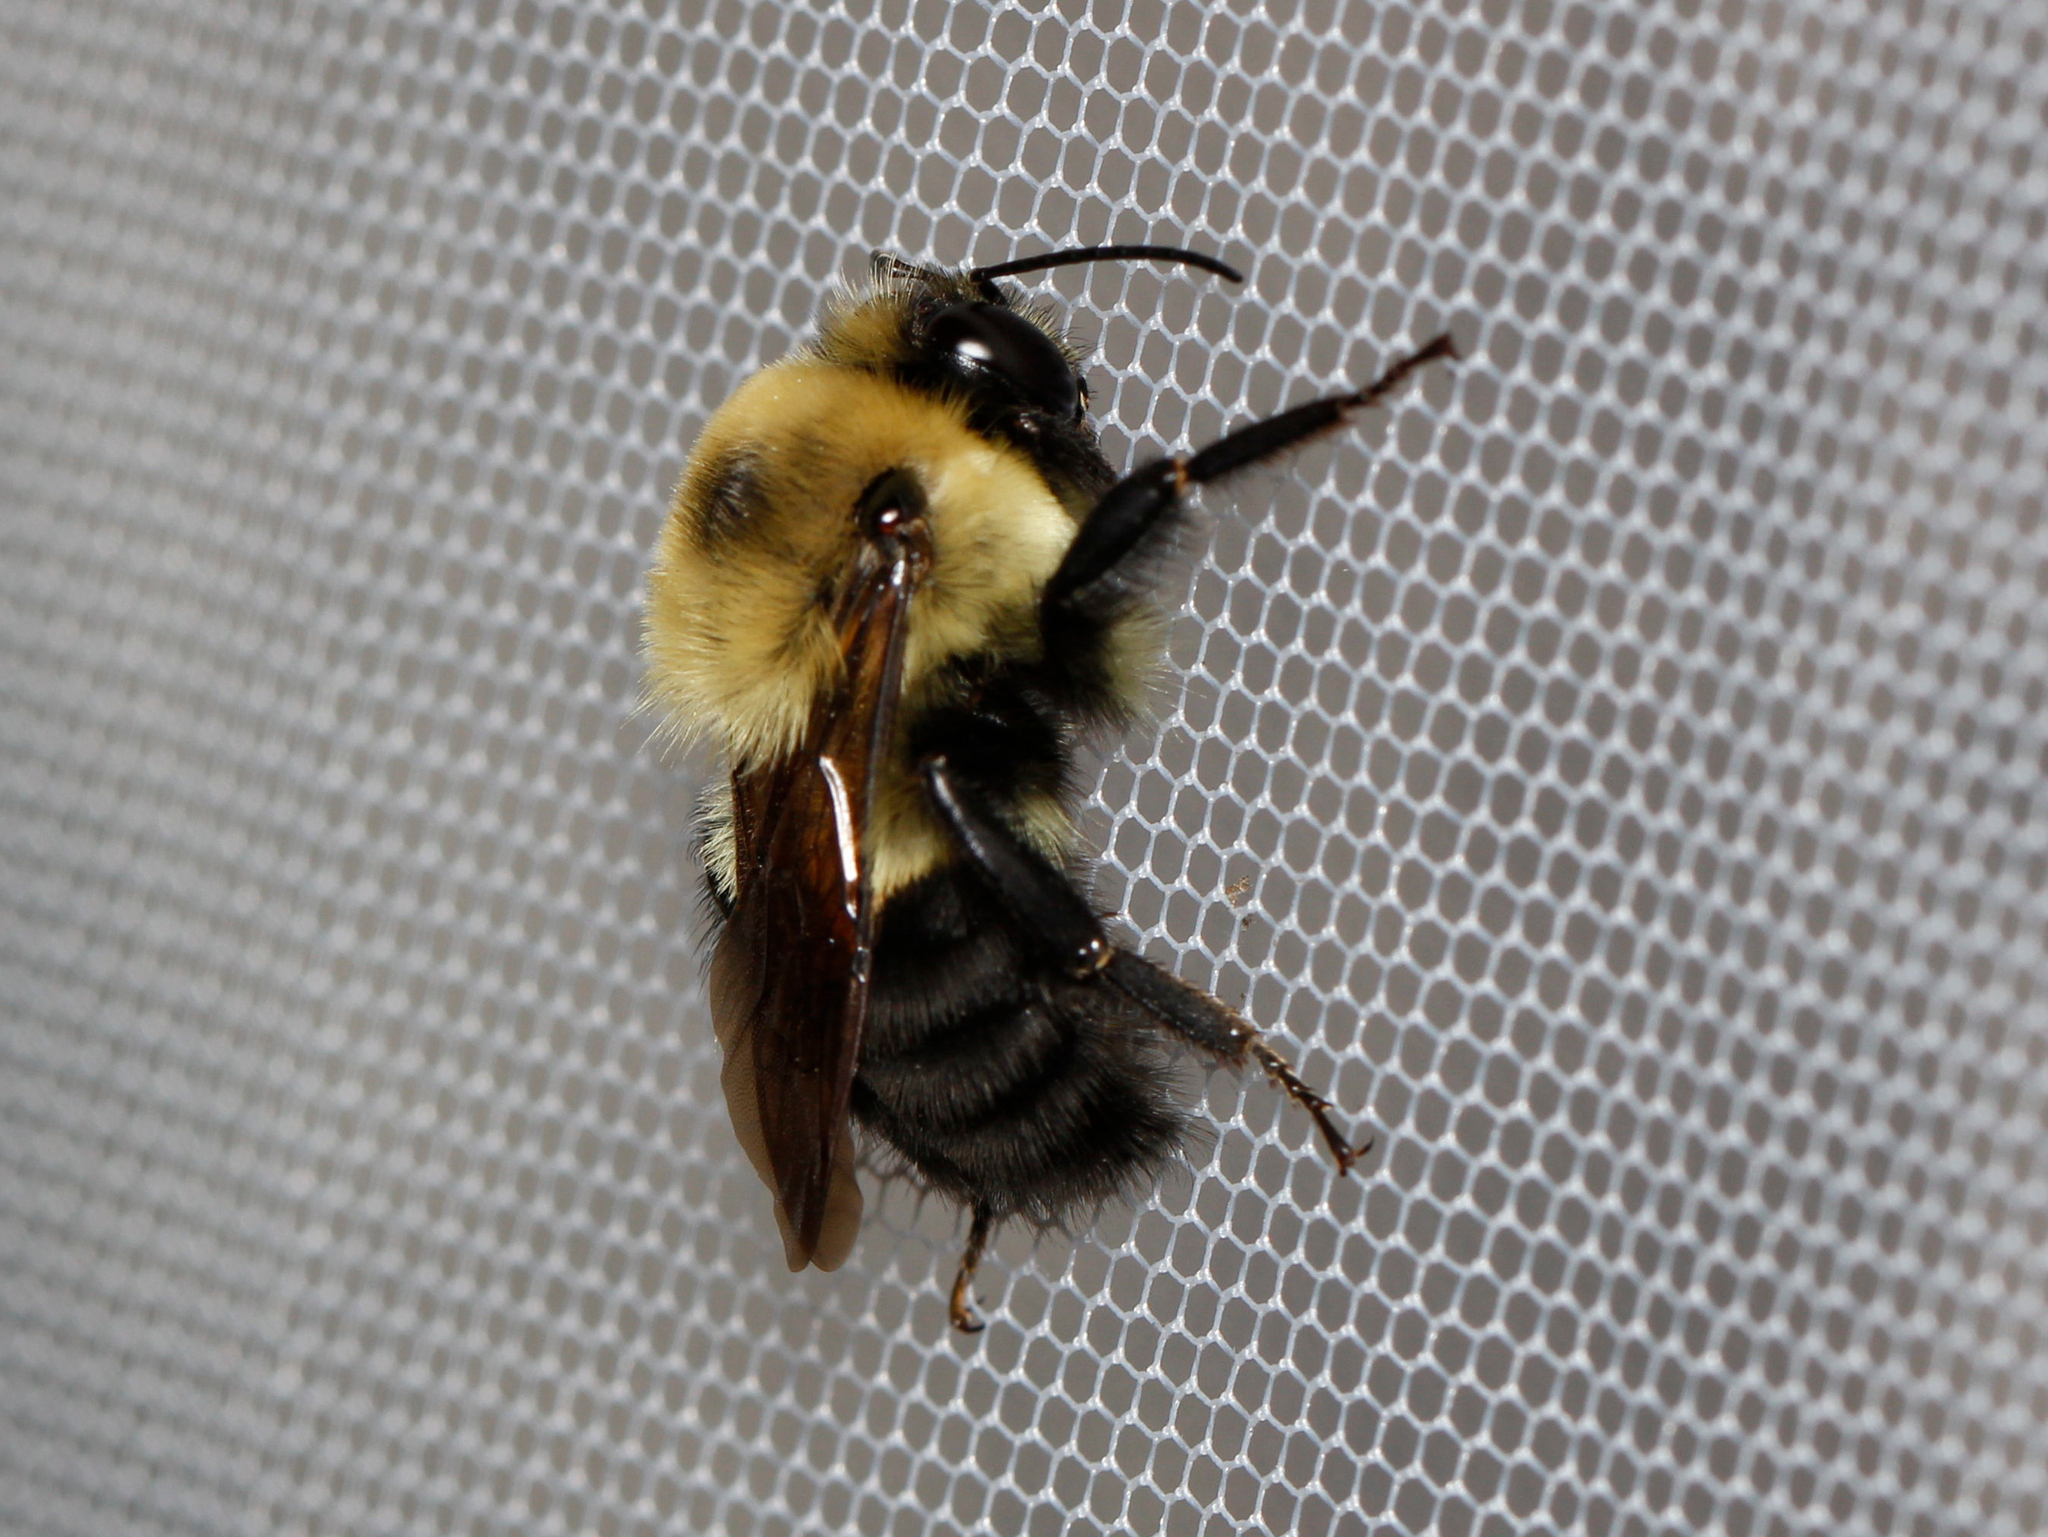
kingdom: Animalia
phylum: Arthropoda
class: Insecta
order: Hymenoptera
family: Apidae
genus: Bombus
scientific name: Bombus griseocollis
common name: Brown-belted bumble bee
